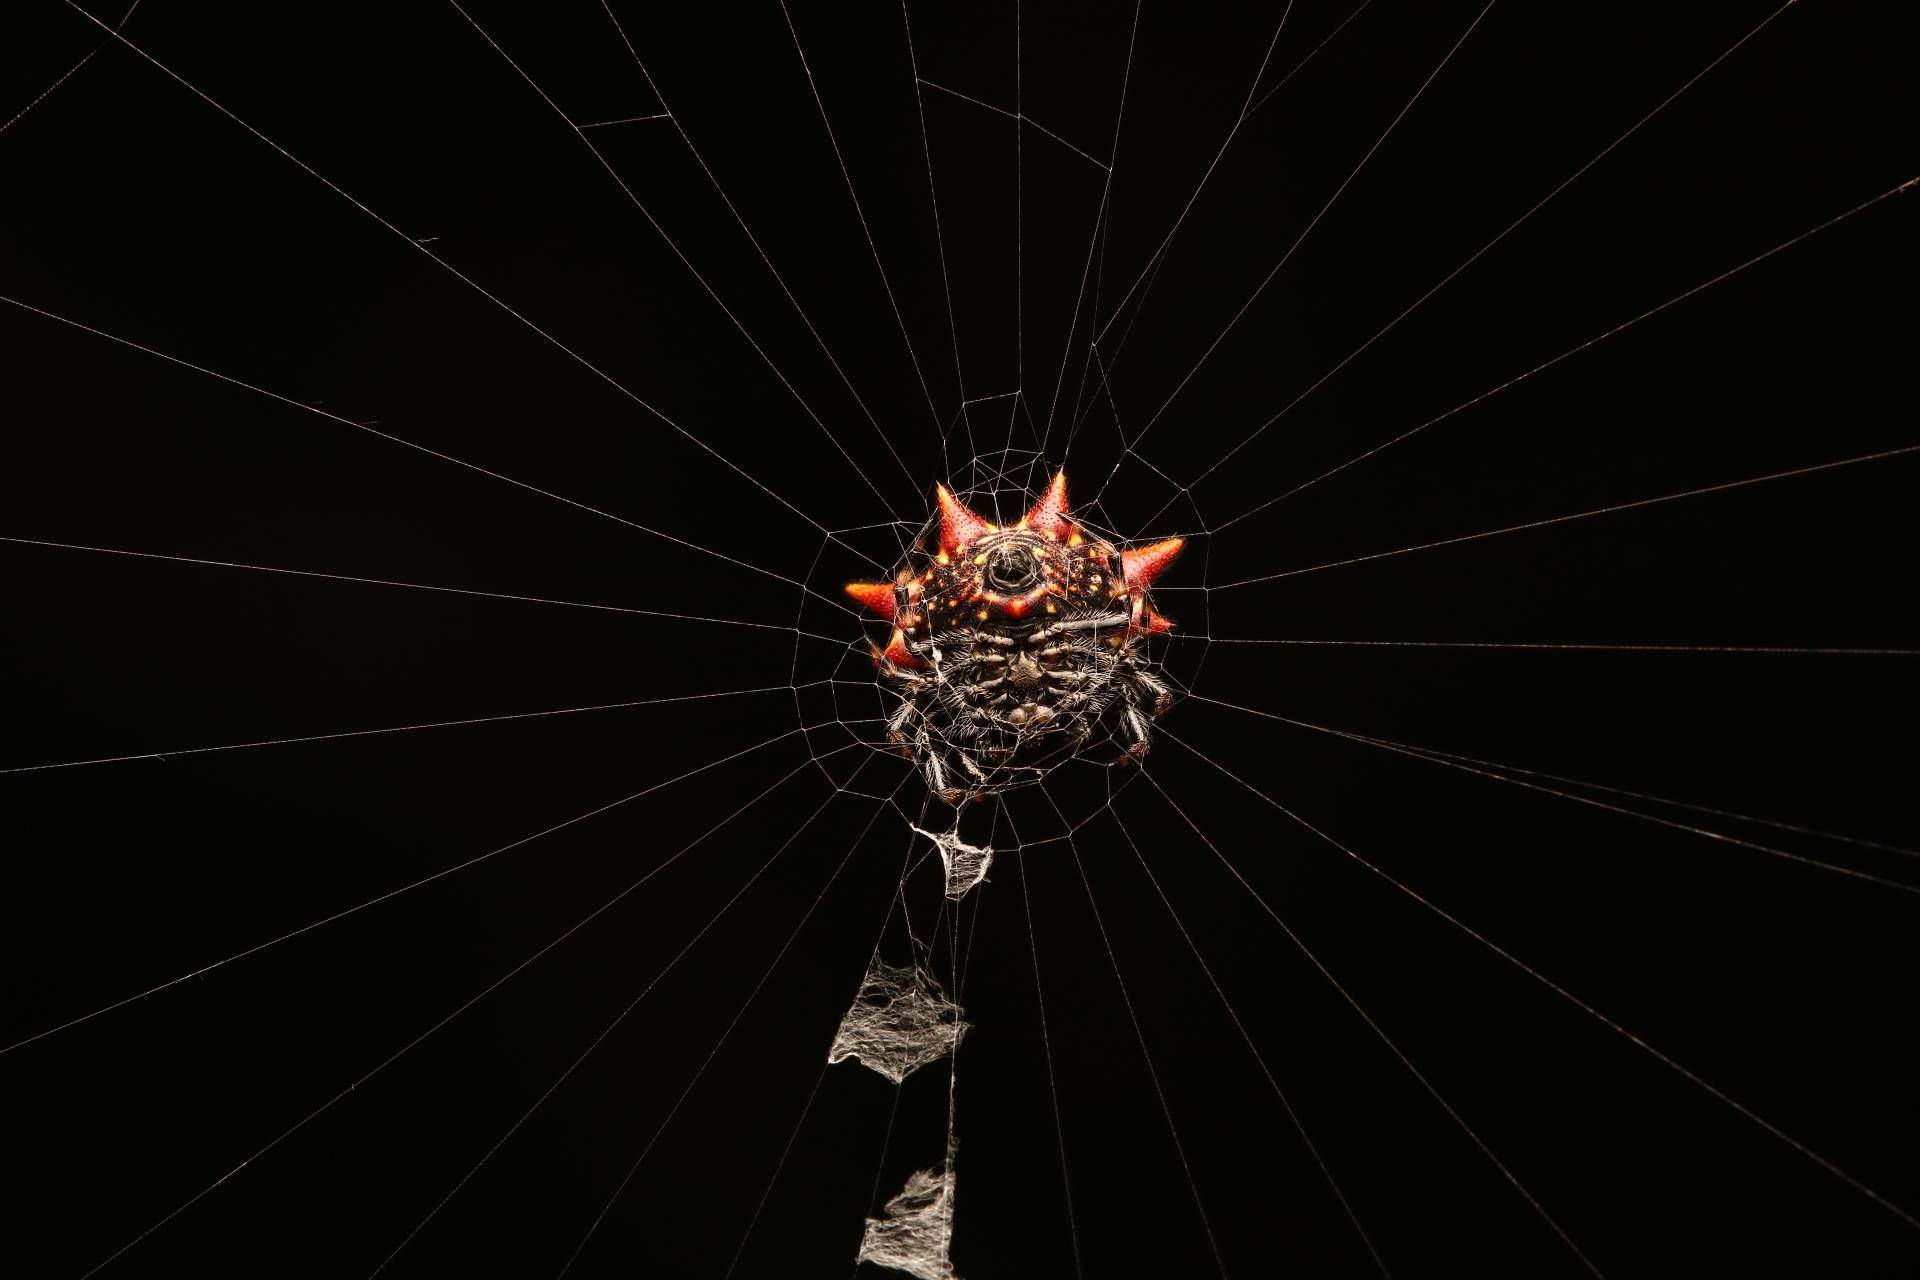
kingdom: Animalia
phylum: Arthropoda
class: Arachnida
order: Araneae
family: Araneidae
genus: Gasteracantha
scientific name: Gasteracantha cancriformis
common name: Orb weavers
